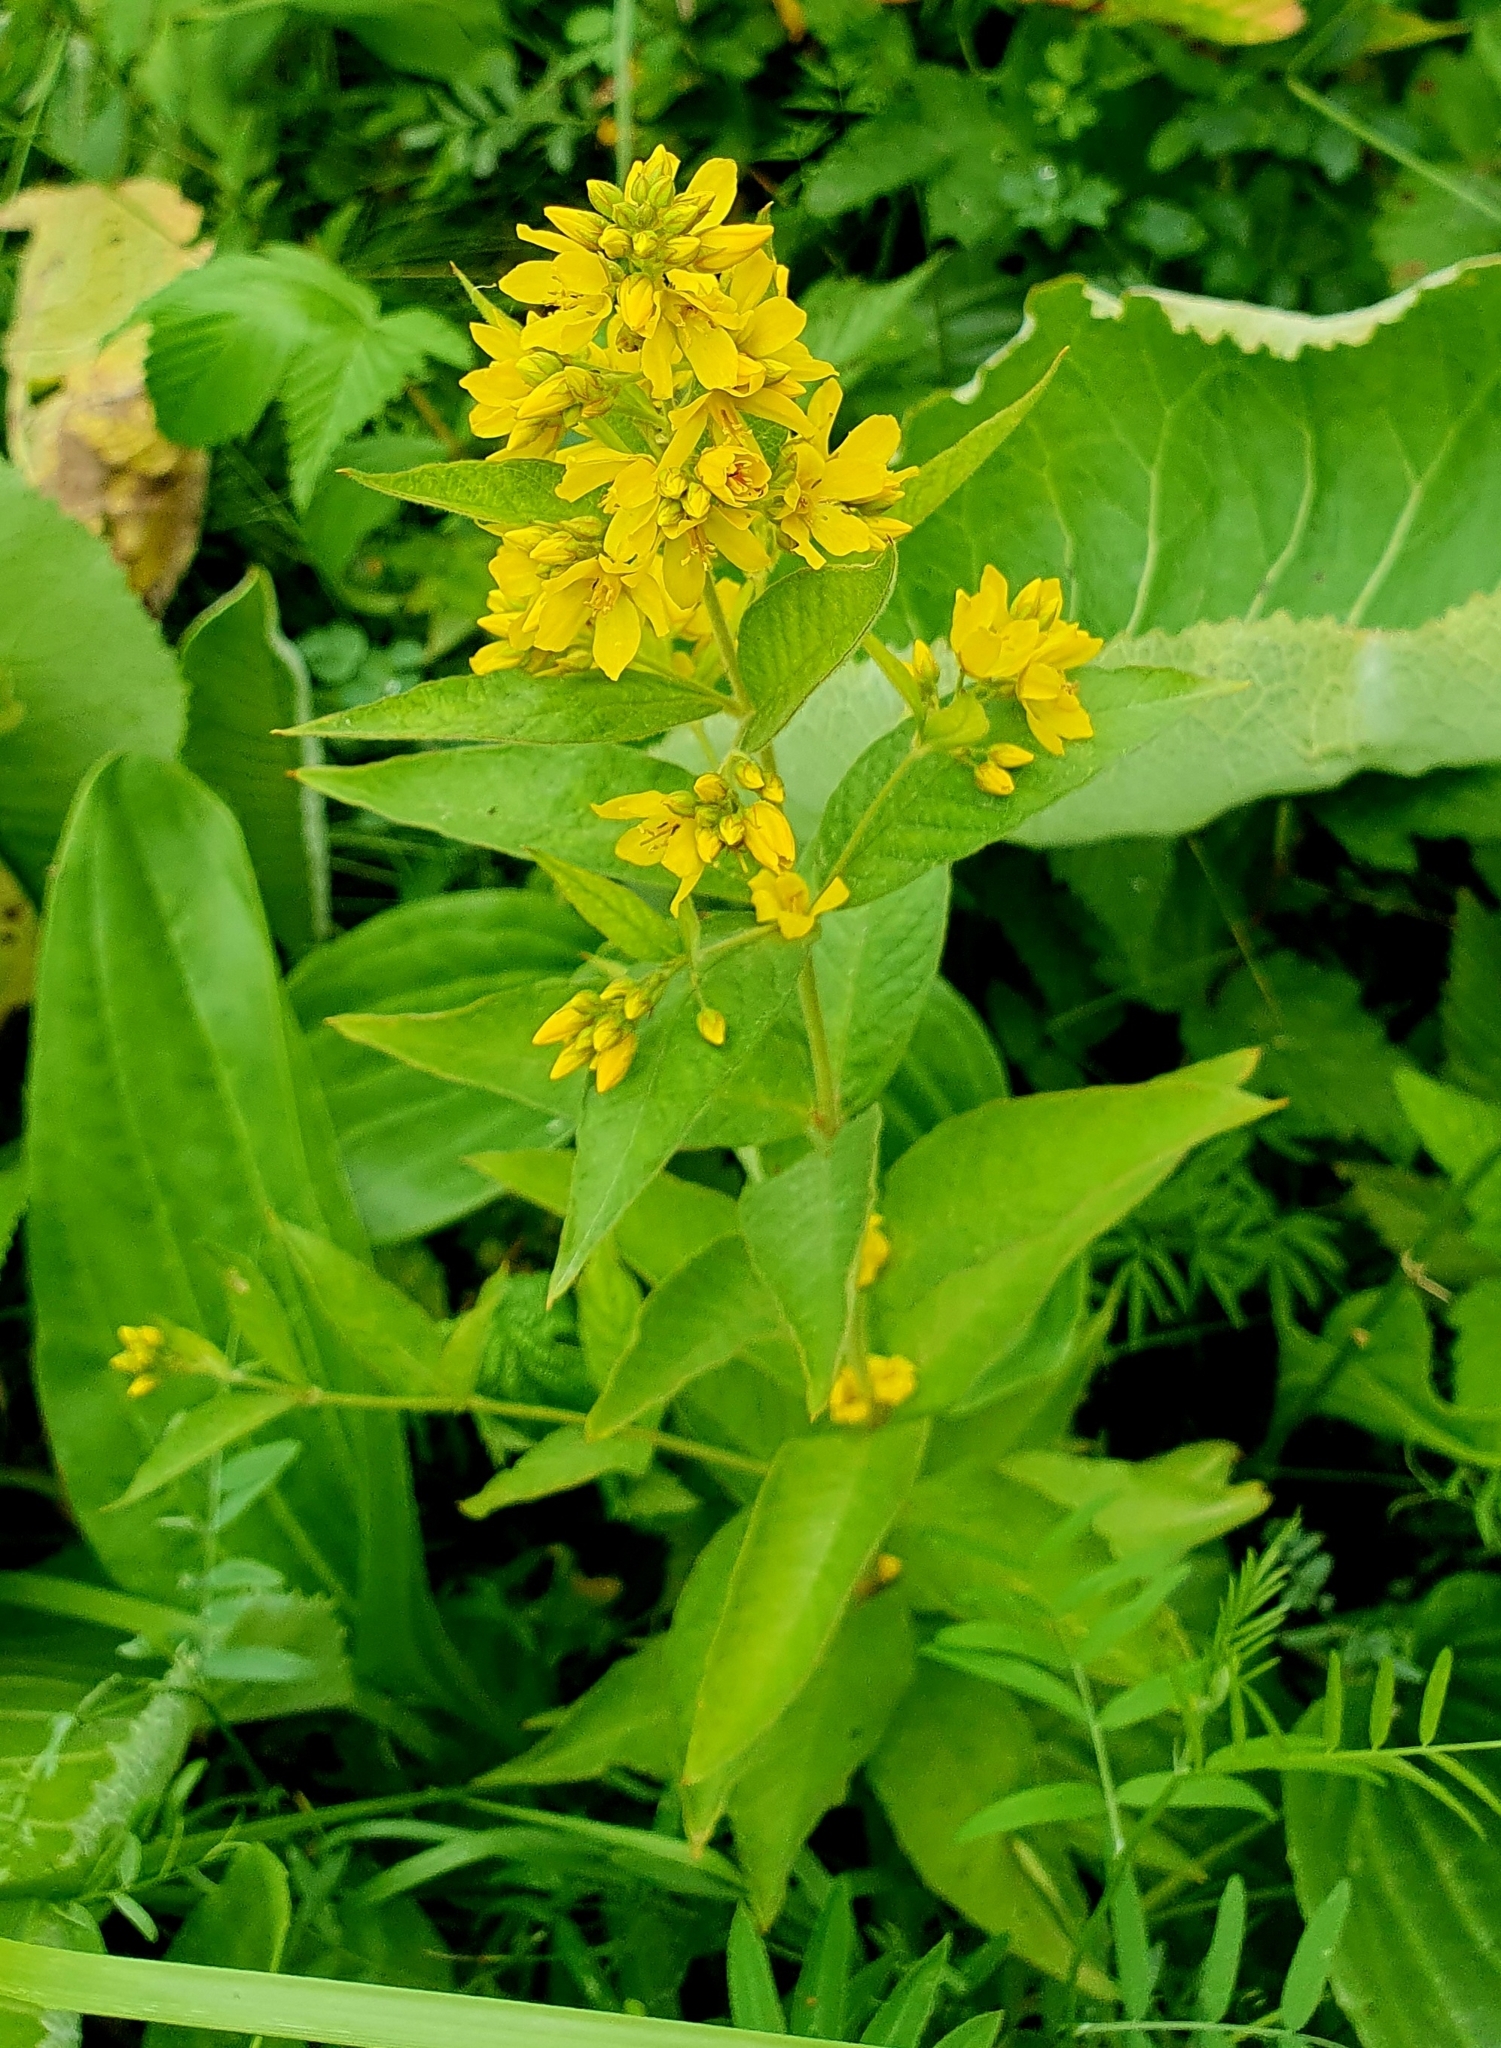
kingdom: Plantae
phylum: Tracheophyta
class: Magnoliopsida
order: Ericales
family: Primulaceae
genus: Lysimachia
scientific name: Lysimachia vulgaris
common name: Yellow loosestrife
